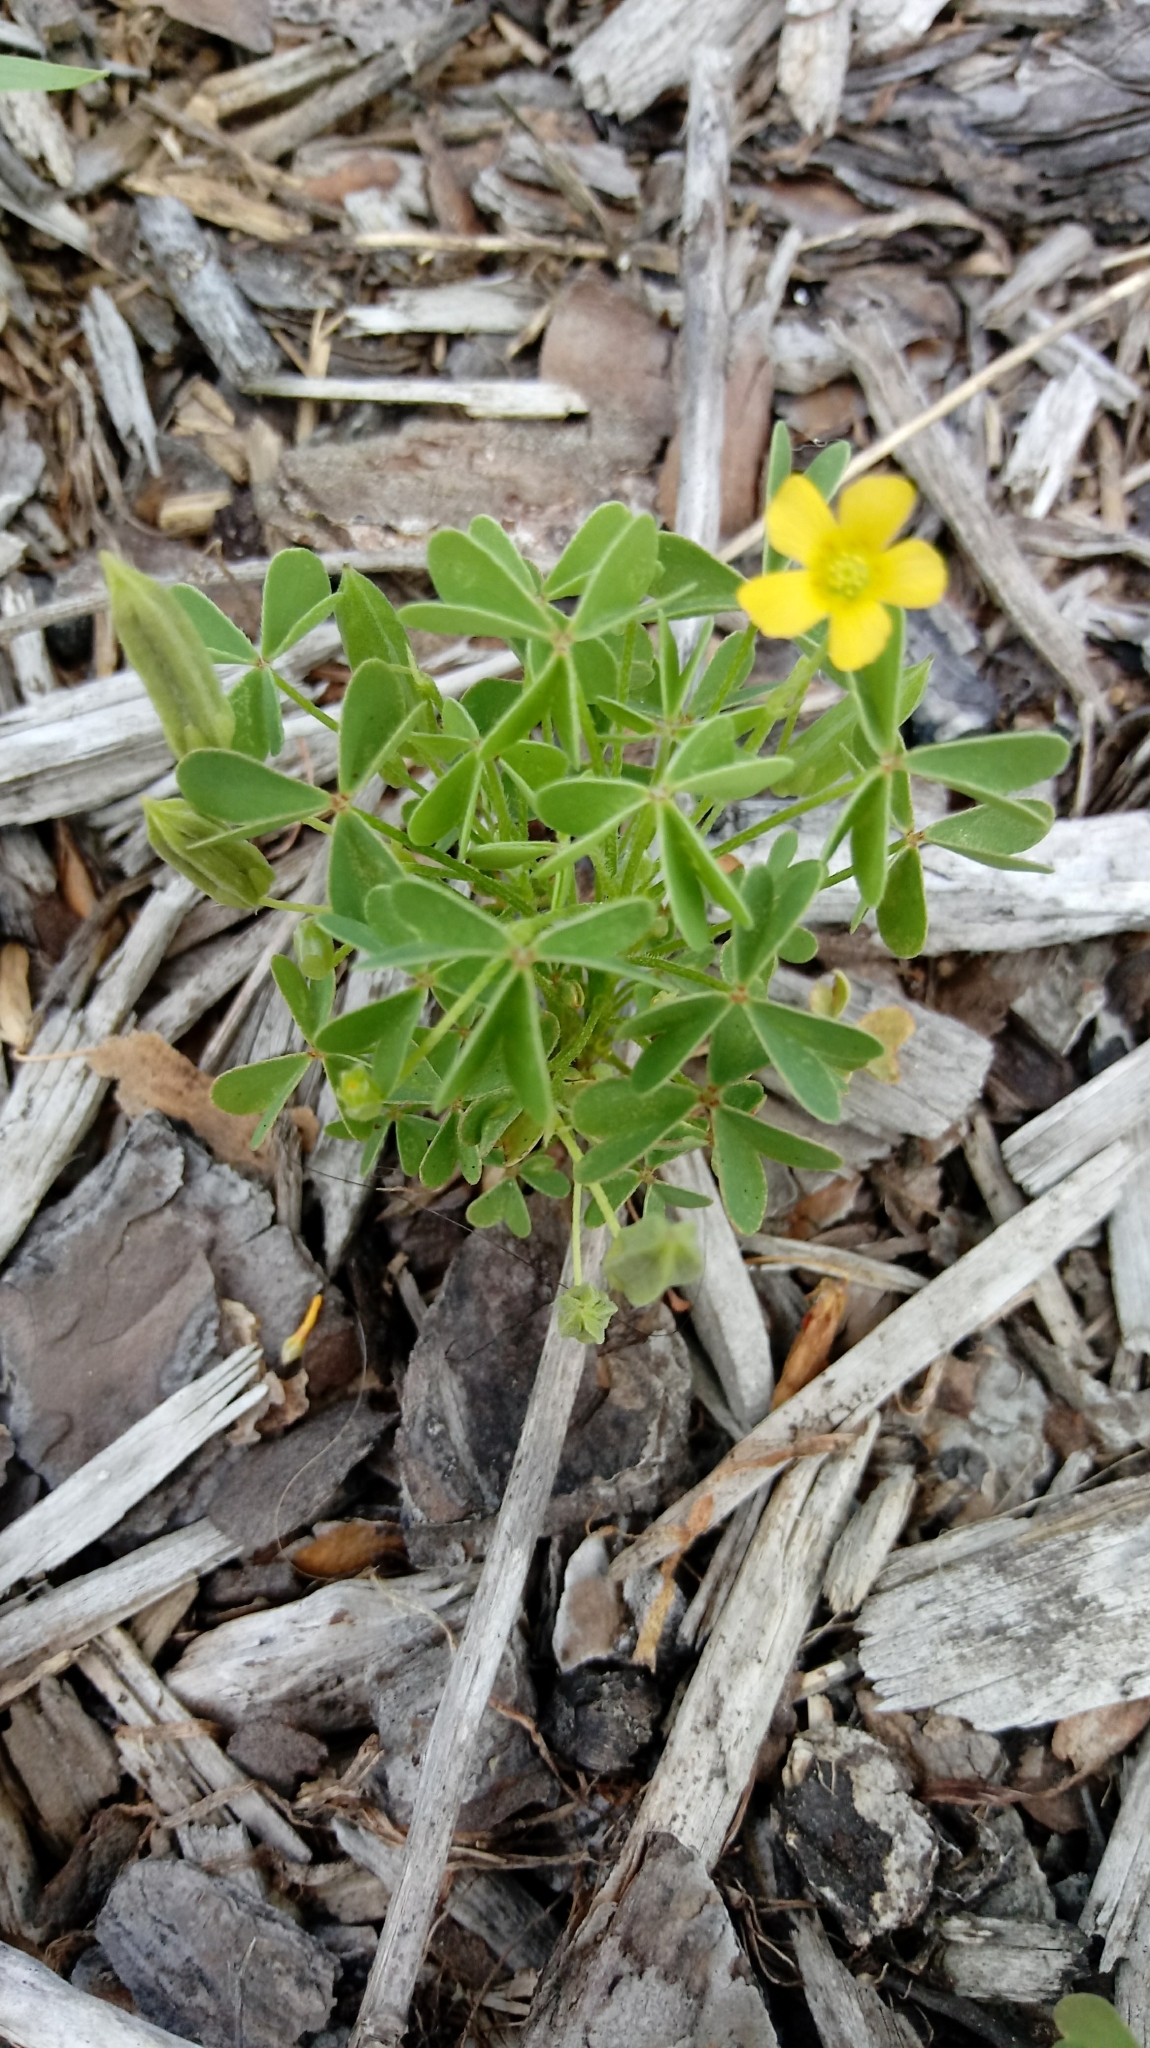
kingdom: Plantae
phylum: Tracheophyta
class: Magnoliopsida
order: Oxalidales
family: Oxalidaceae
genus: Oxalis
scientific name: Oxalis dillenii
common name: Sussex yellow-sorrel
